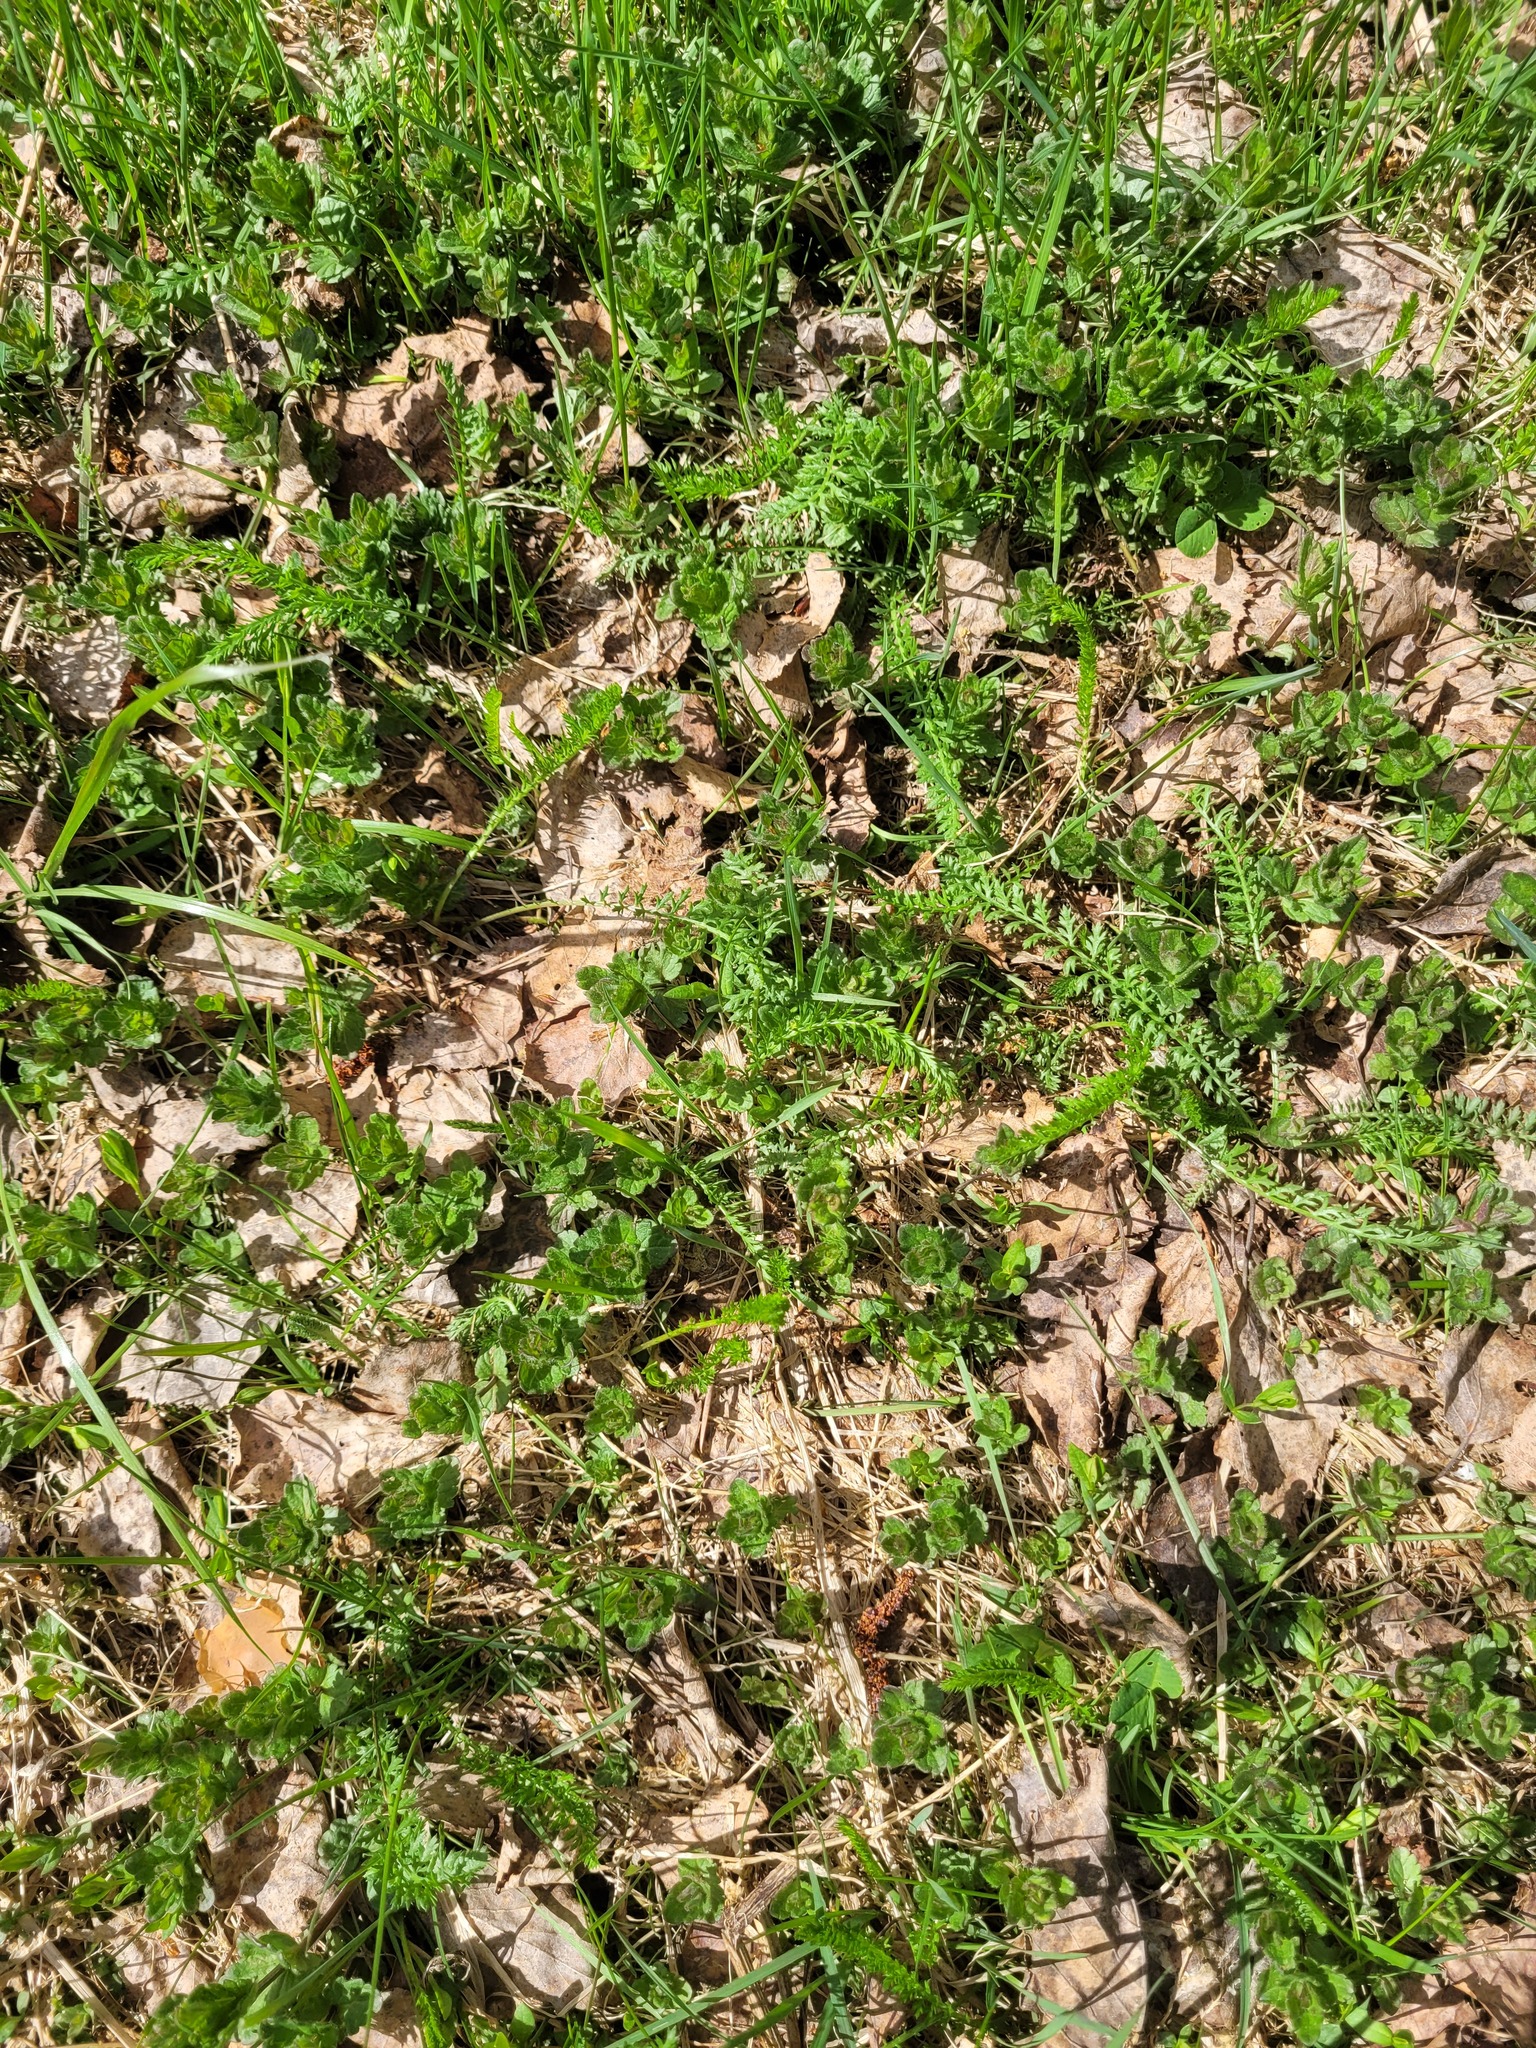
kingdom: Plantae
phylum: Tracheophyta
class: Magnoliopsida
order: Lamiales
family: Plantaginaceae
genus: Veronica
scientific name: Veronica chamaedrys
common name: Germander speedwell
